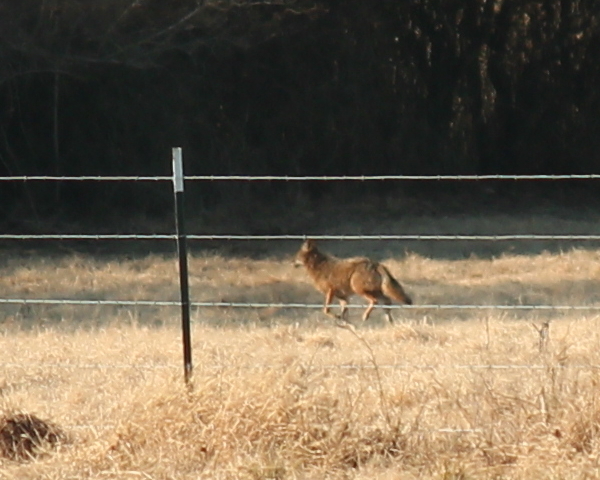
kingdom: Animalia
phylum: Chordata
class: Mammalia
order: Carnivora
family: Canidae
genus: Canis
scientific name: Canis latrans
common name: Coyote
